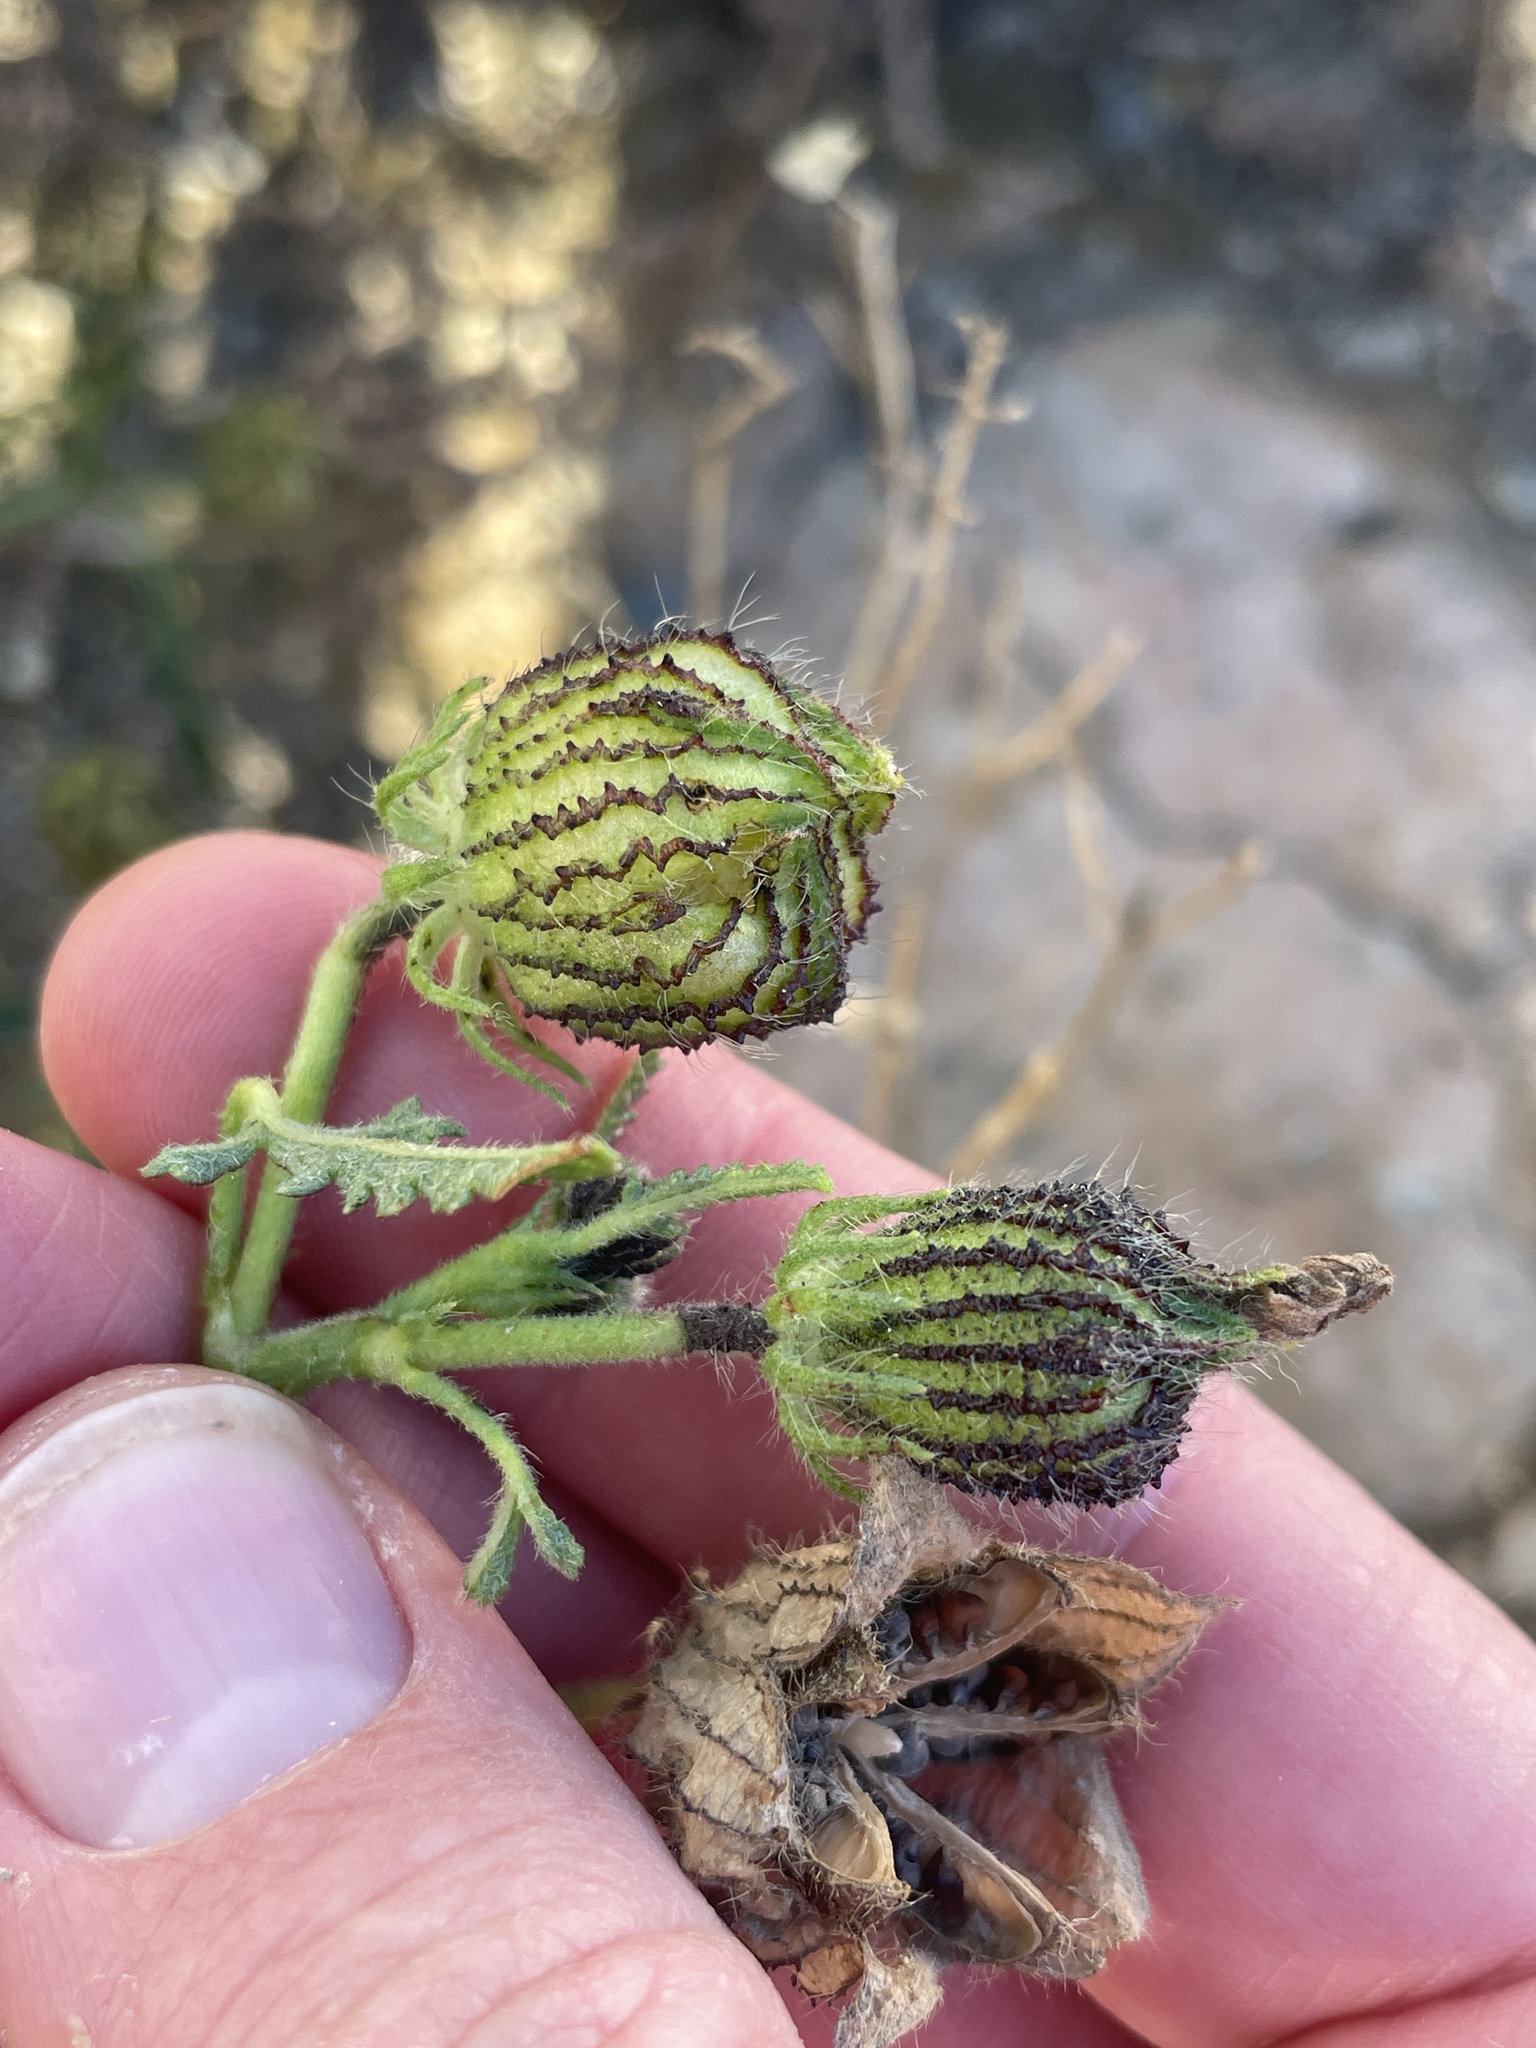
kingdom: Plantae
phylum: Tracheophyta
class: Magnoliopsida
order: Malvales
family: Malvaceae
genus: Hibiscus
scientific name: Hibiscus trionum
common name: Bladder ketmia
